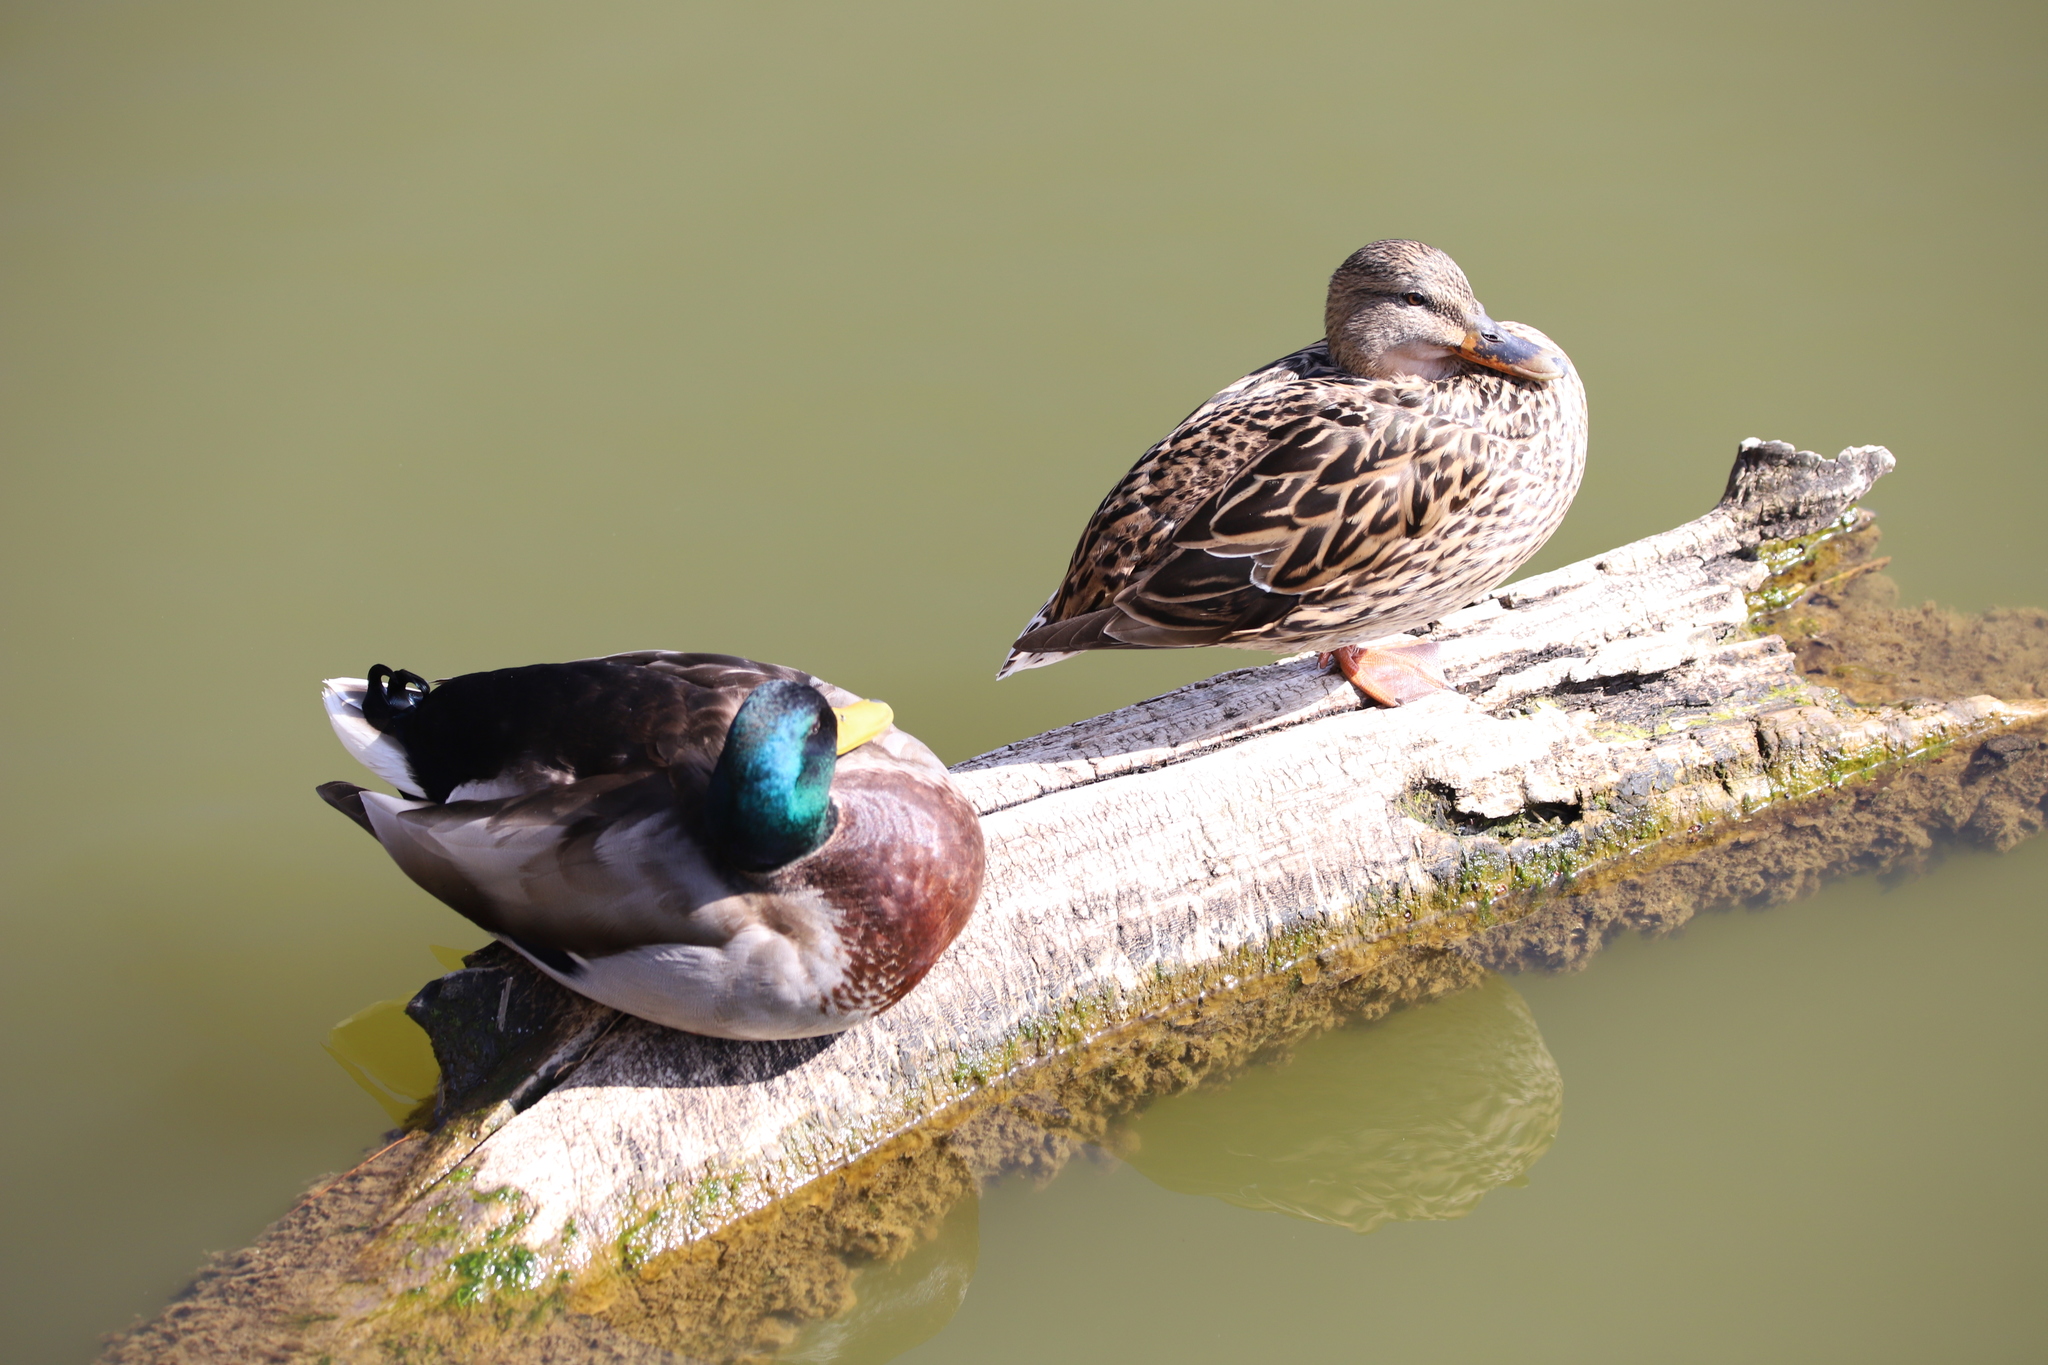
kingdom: Animalia
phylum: Chordata
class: Aves
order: Anseriformes
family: Anatidae
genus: Anas
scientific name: Anas platyrhynchos
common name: Mallard
